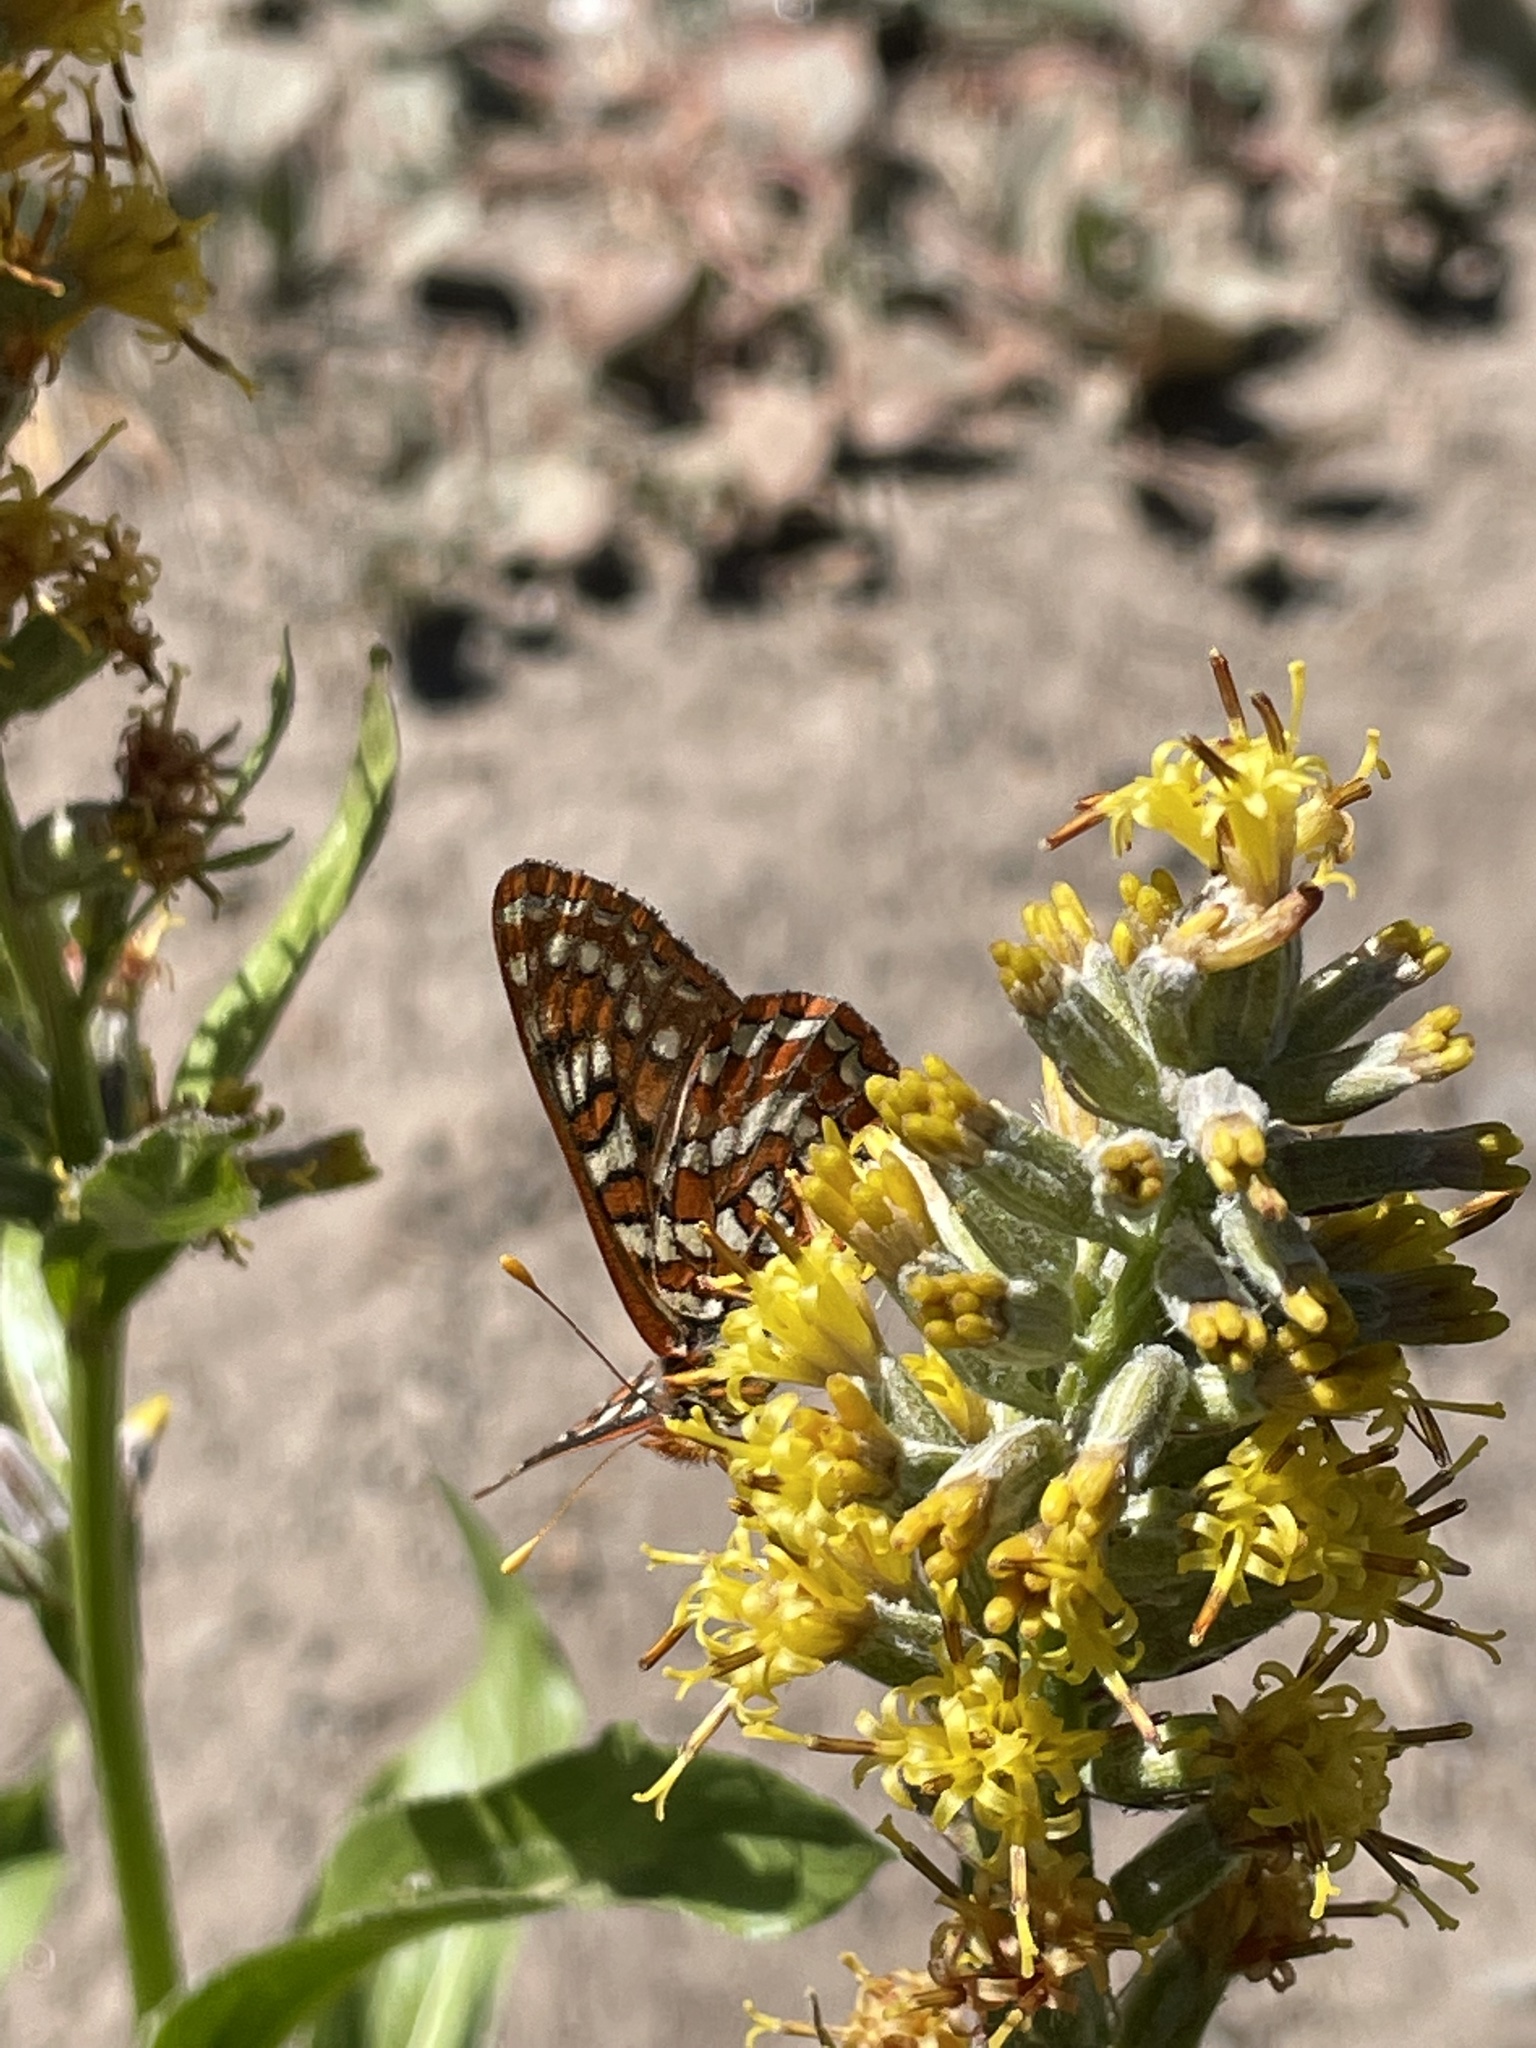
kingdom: Animalia
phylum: Arthropoda
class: Insecta
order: Lepidoptera
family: Nymphalidae
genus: Occidryas
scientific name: Occidryas editha
